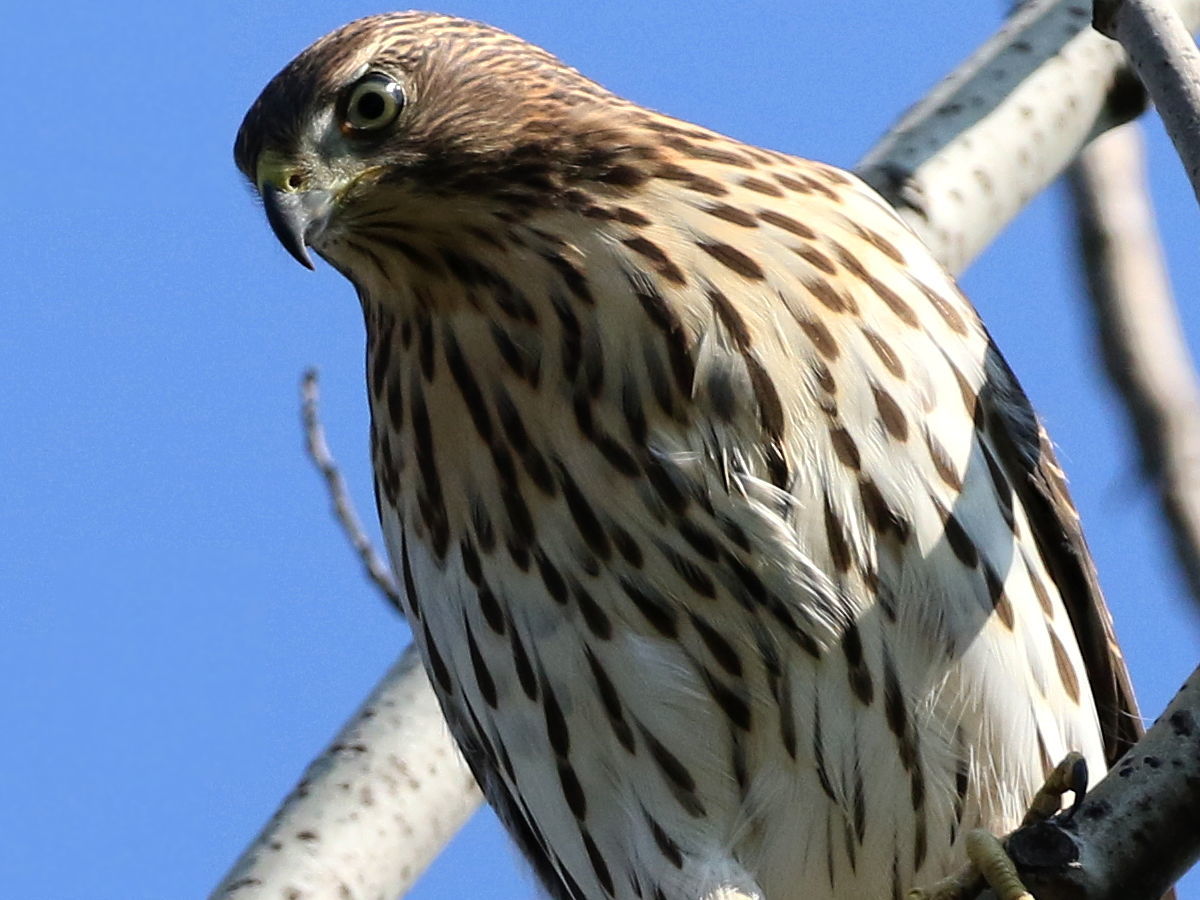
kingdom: Animalia
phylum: Chordata
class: Aves
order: Accipitriformes
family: Accipitridae
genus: Accipiter
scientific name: Accipiter cooperii
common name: Cooper's hawk
